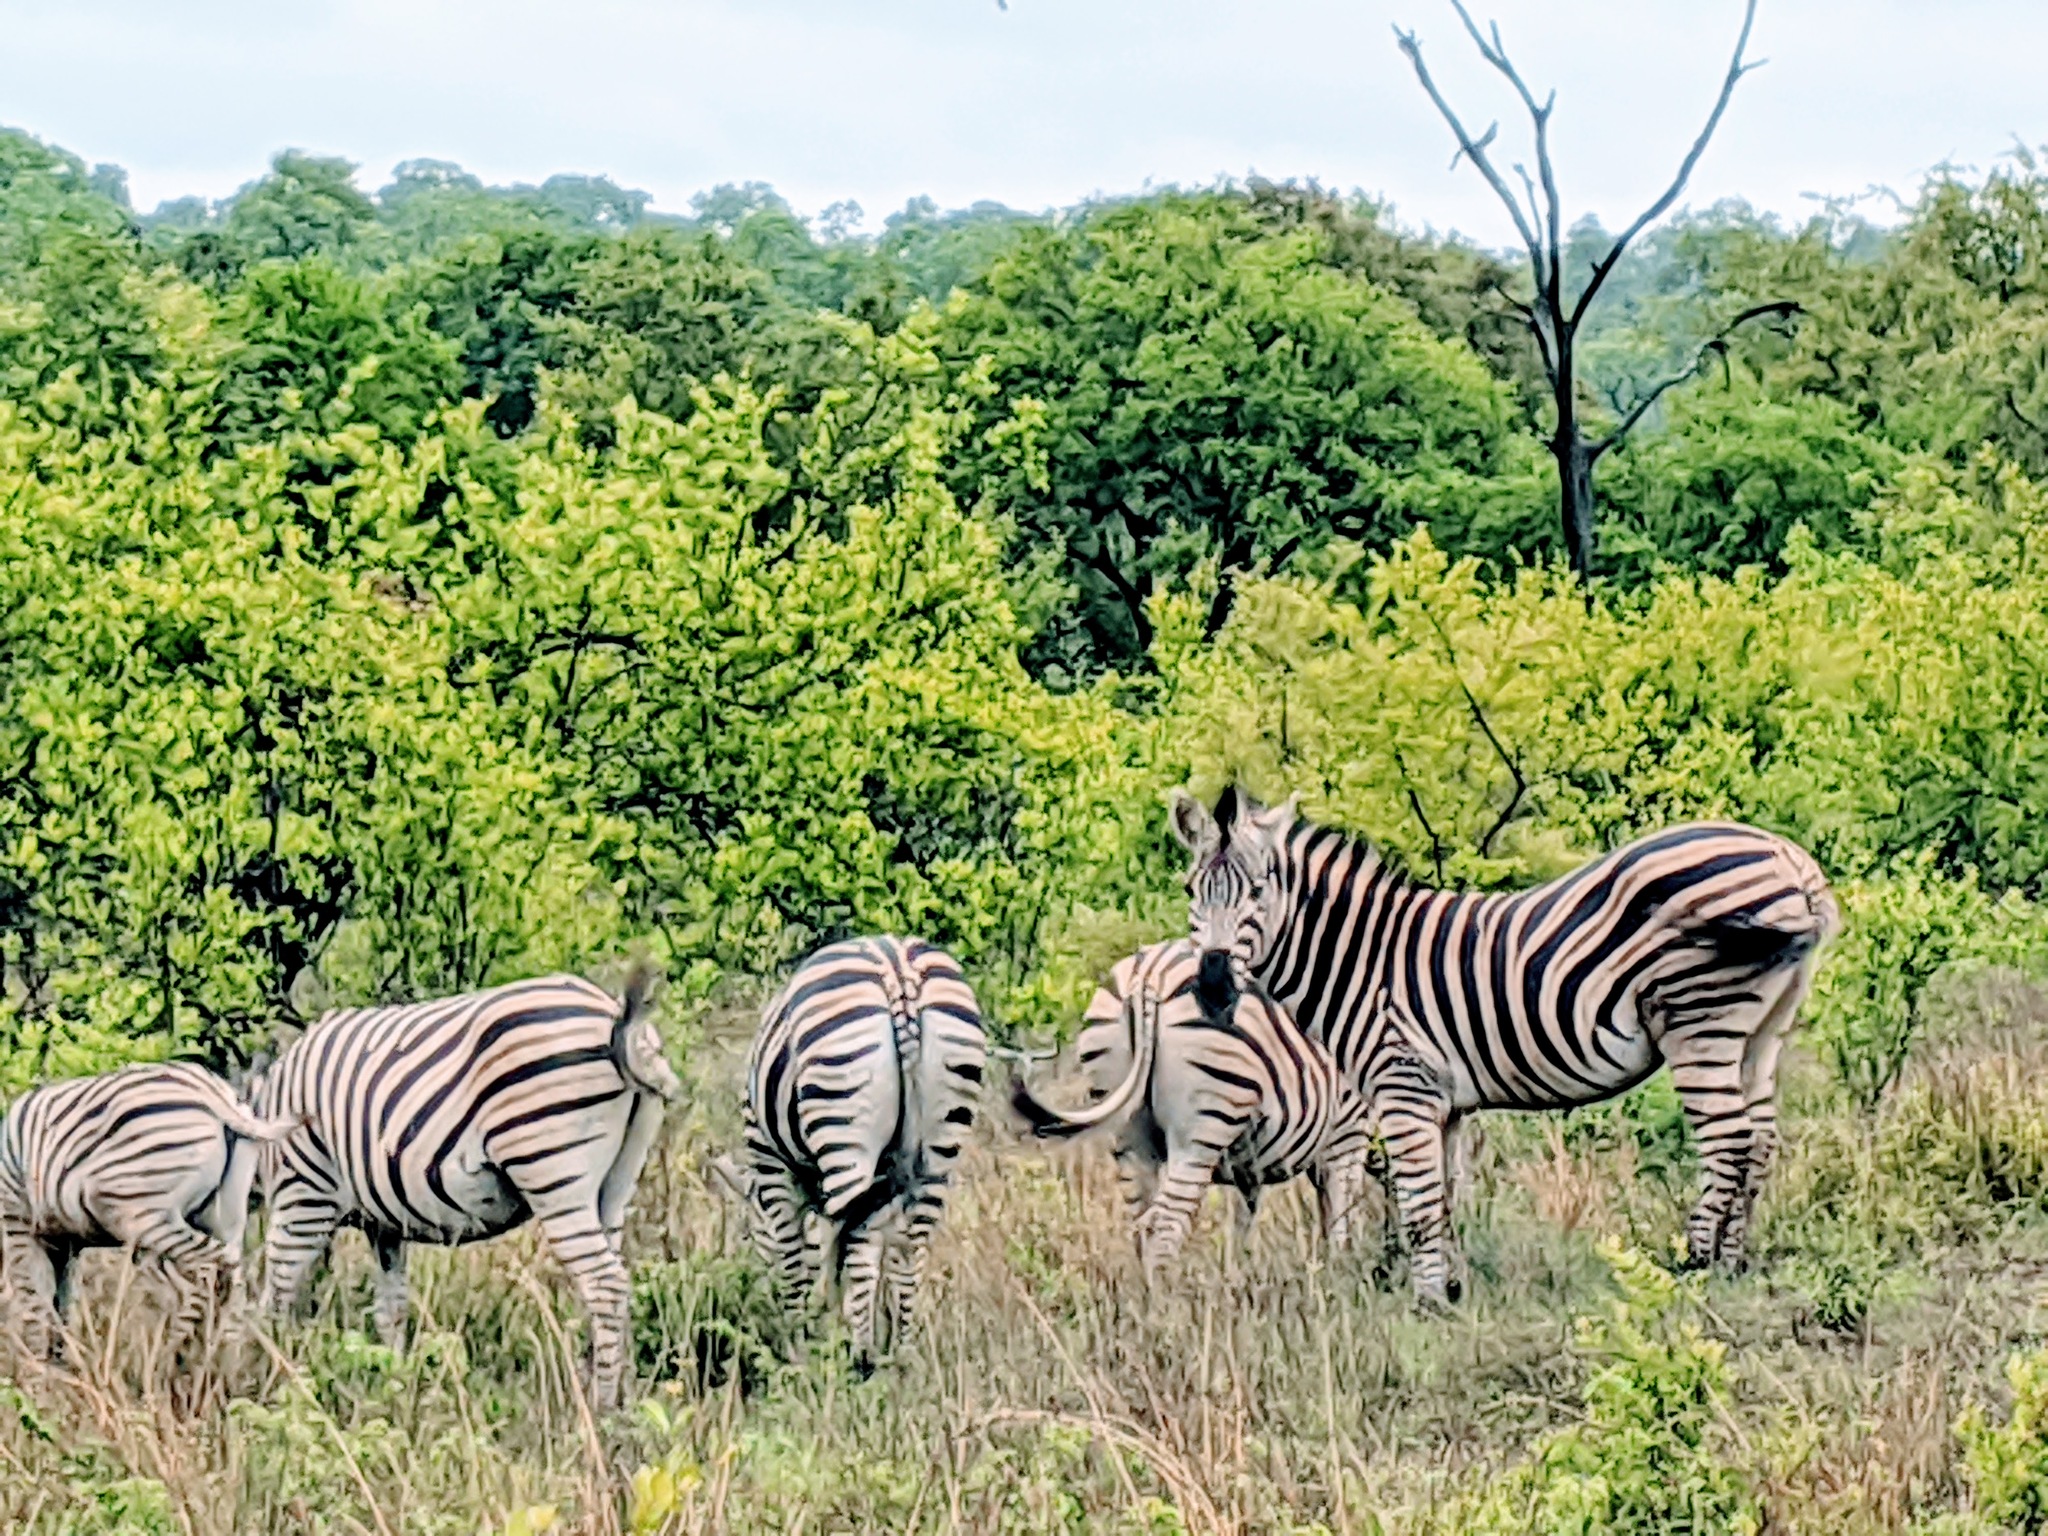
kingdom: Animalia
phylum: Chordata
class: Mammalia
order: Perissodactyla
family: Equidae
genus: Equus
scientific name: Equus quagga
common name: Plains zebra
